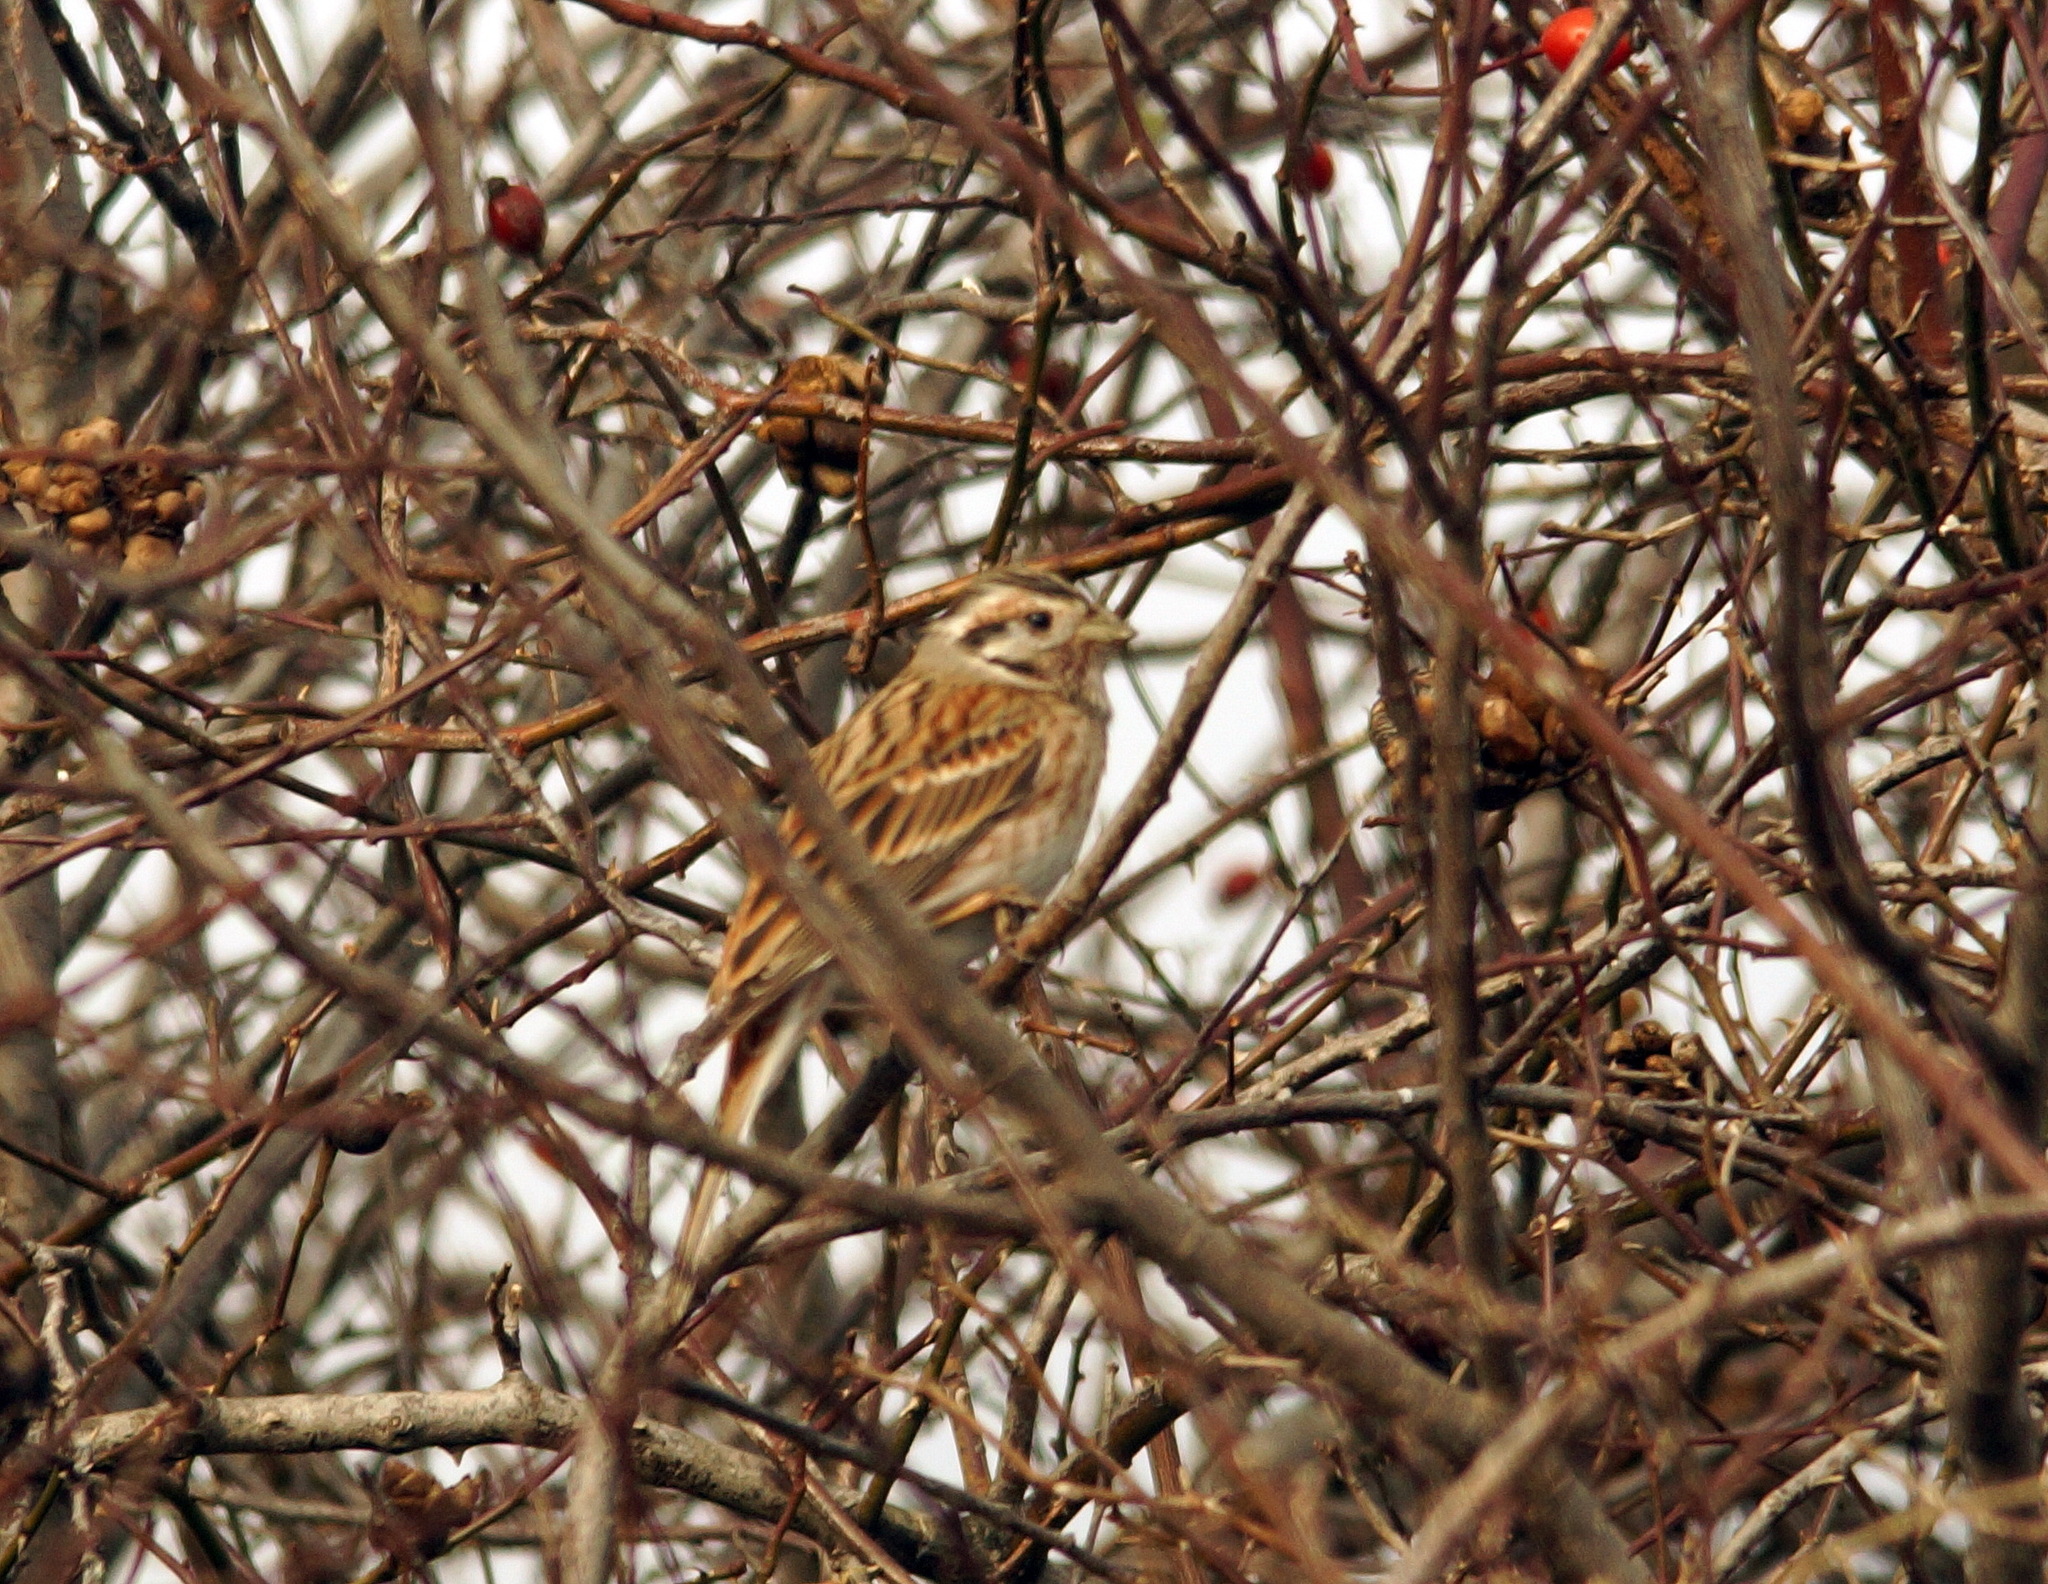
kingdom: Animalia
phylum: Chordata
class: Aves
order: Passeriformes
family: Emberizidae
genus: Emberiza
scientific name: Emberiza
